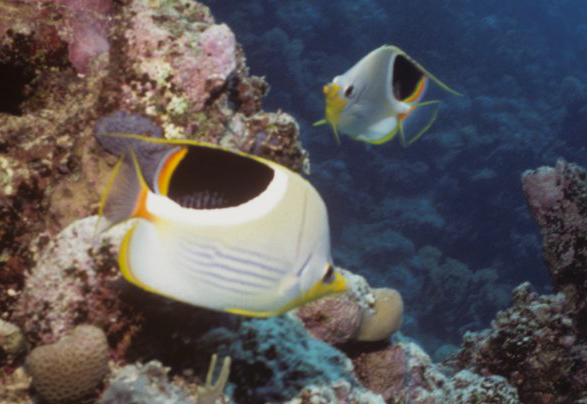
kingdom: Animalia
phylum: Chordata
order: Perciformes
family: Chaetodontidae
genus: Chaetodon
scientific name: Chaetodon ephippium
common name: Saddled butterflyfish
